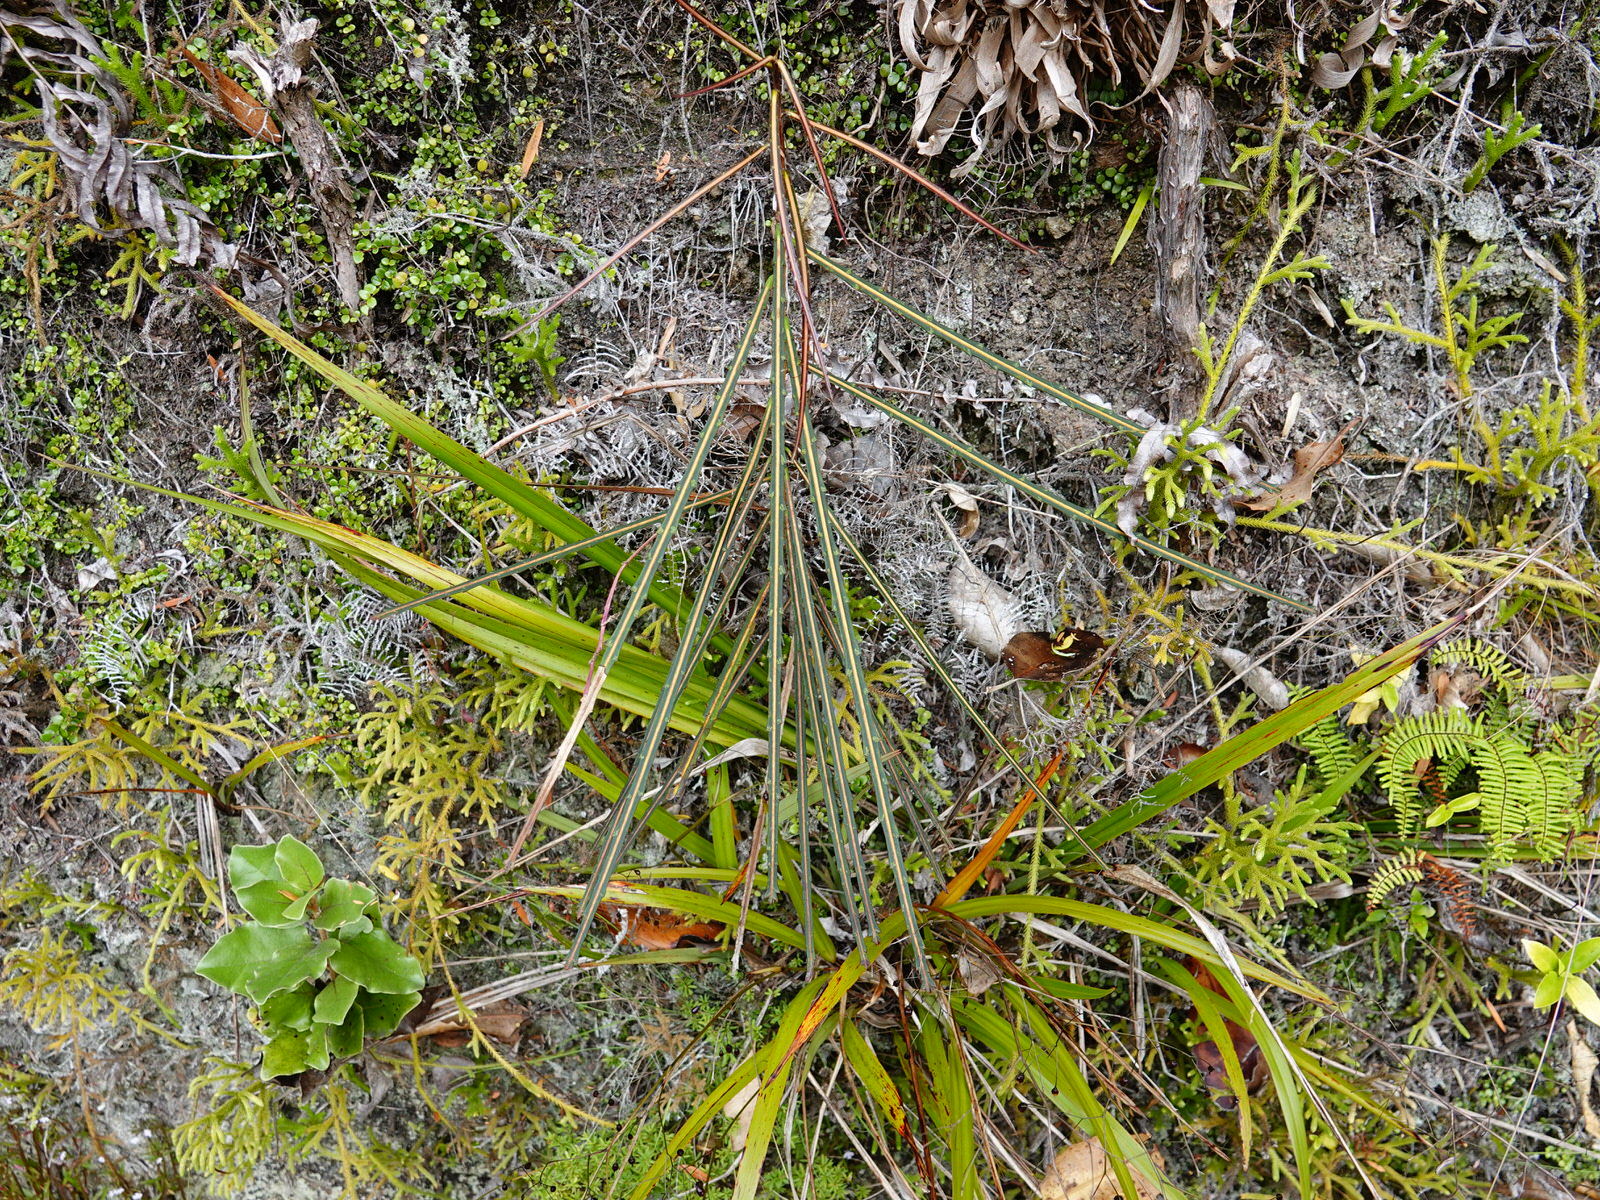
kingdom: Plantae
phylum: Tracheophyta
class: Magnoliopsida
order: Apiales
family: Araliaceae
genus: Pseudopanax
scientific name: Pseudopanax crassifolius
